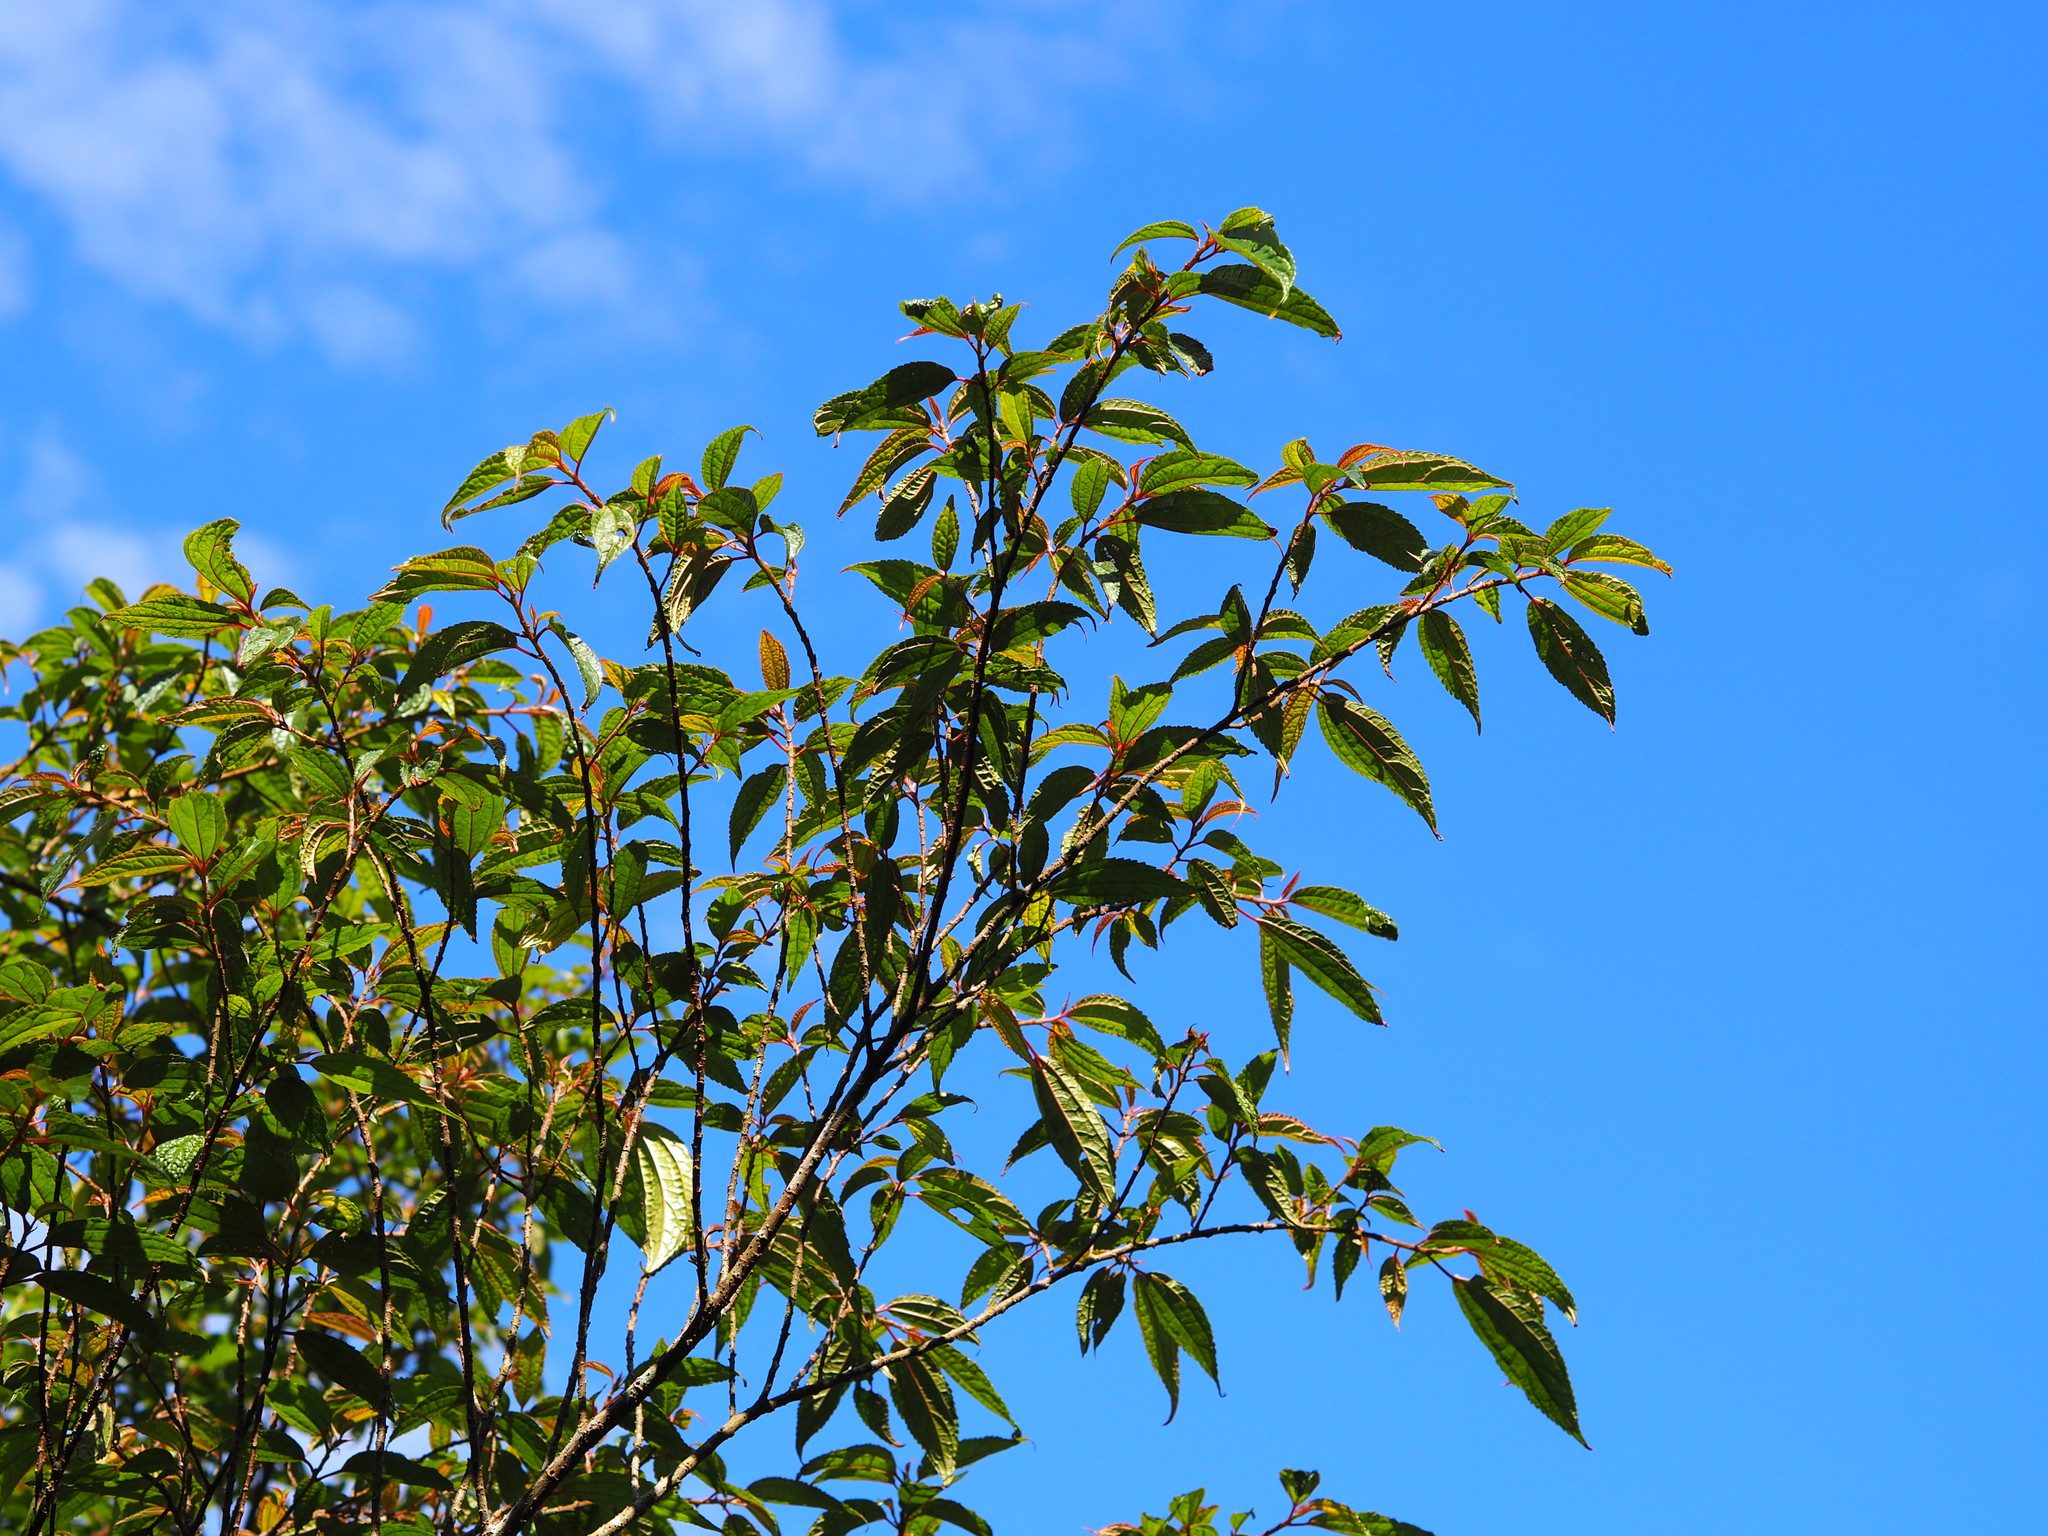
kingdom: Plantae
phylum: Tracheophyta
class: Magnoliopsida
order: Rosales
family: Urticaceae
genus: Oreocnide
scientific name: Oreocnide pedunculata
